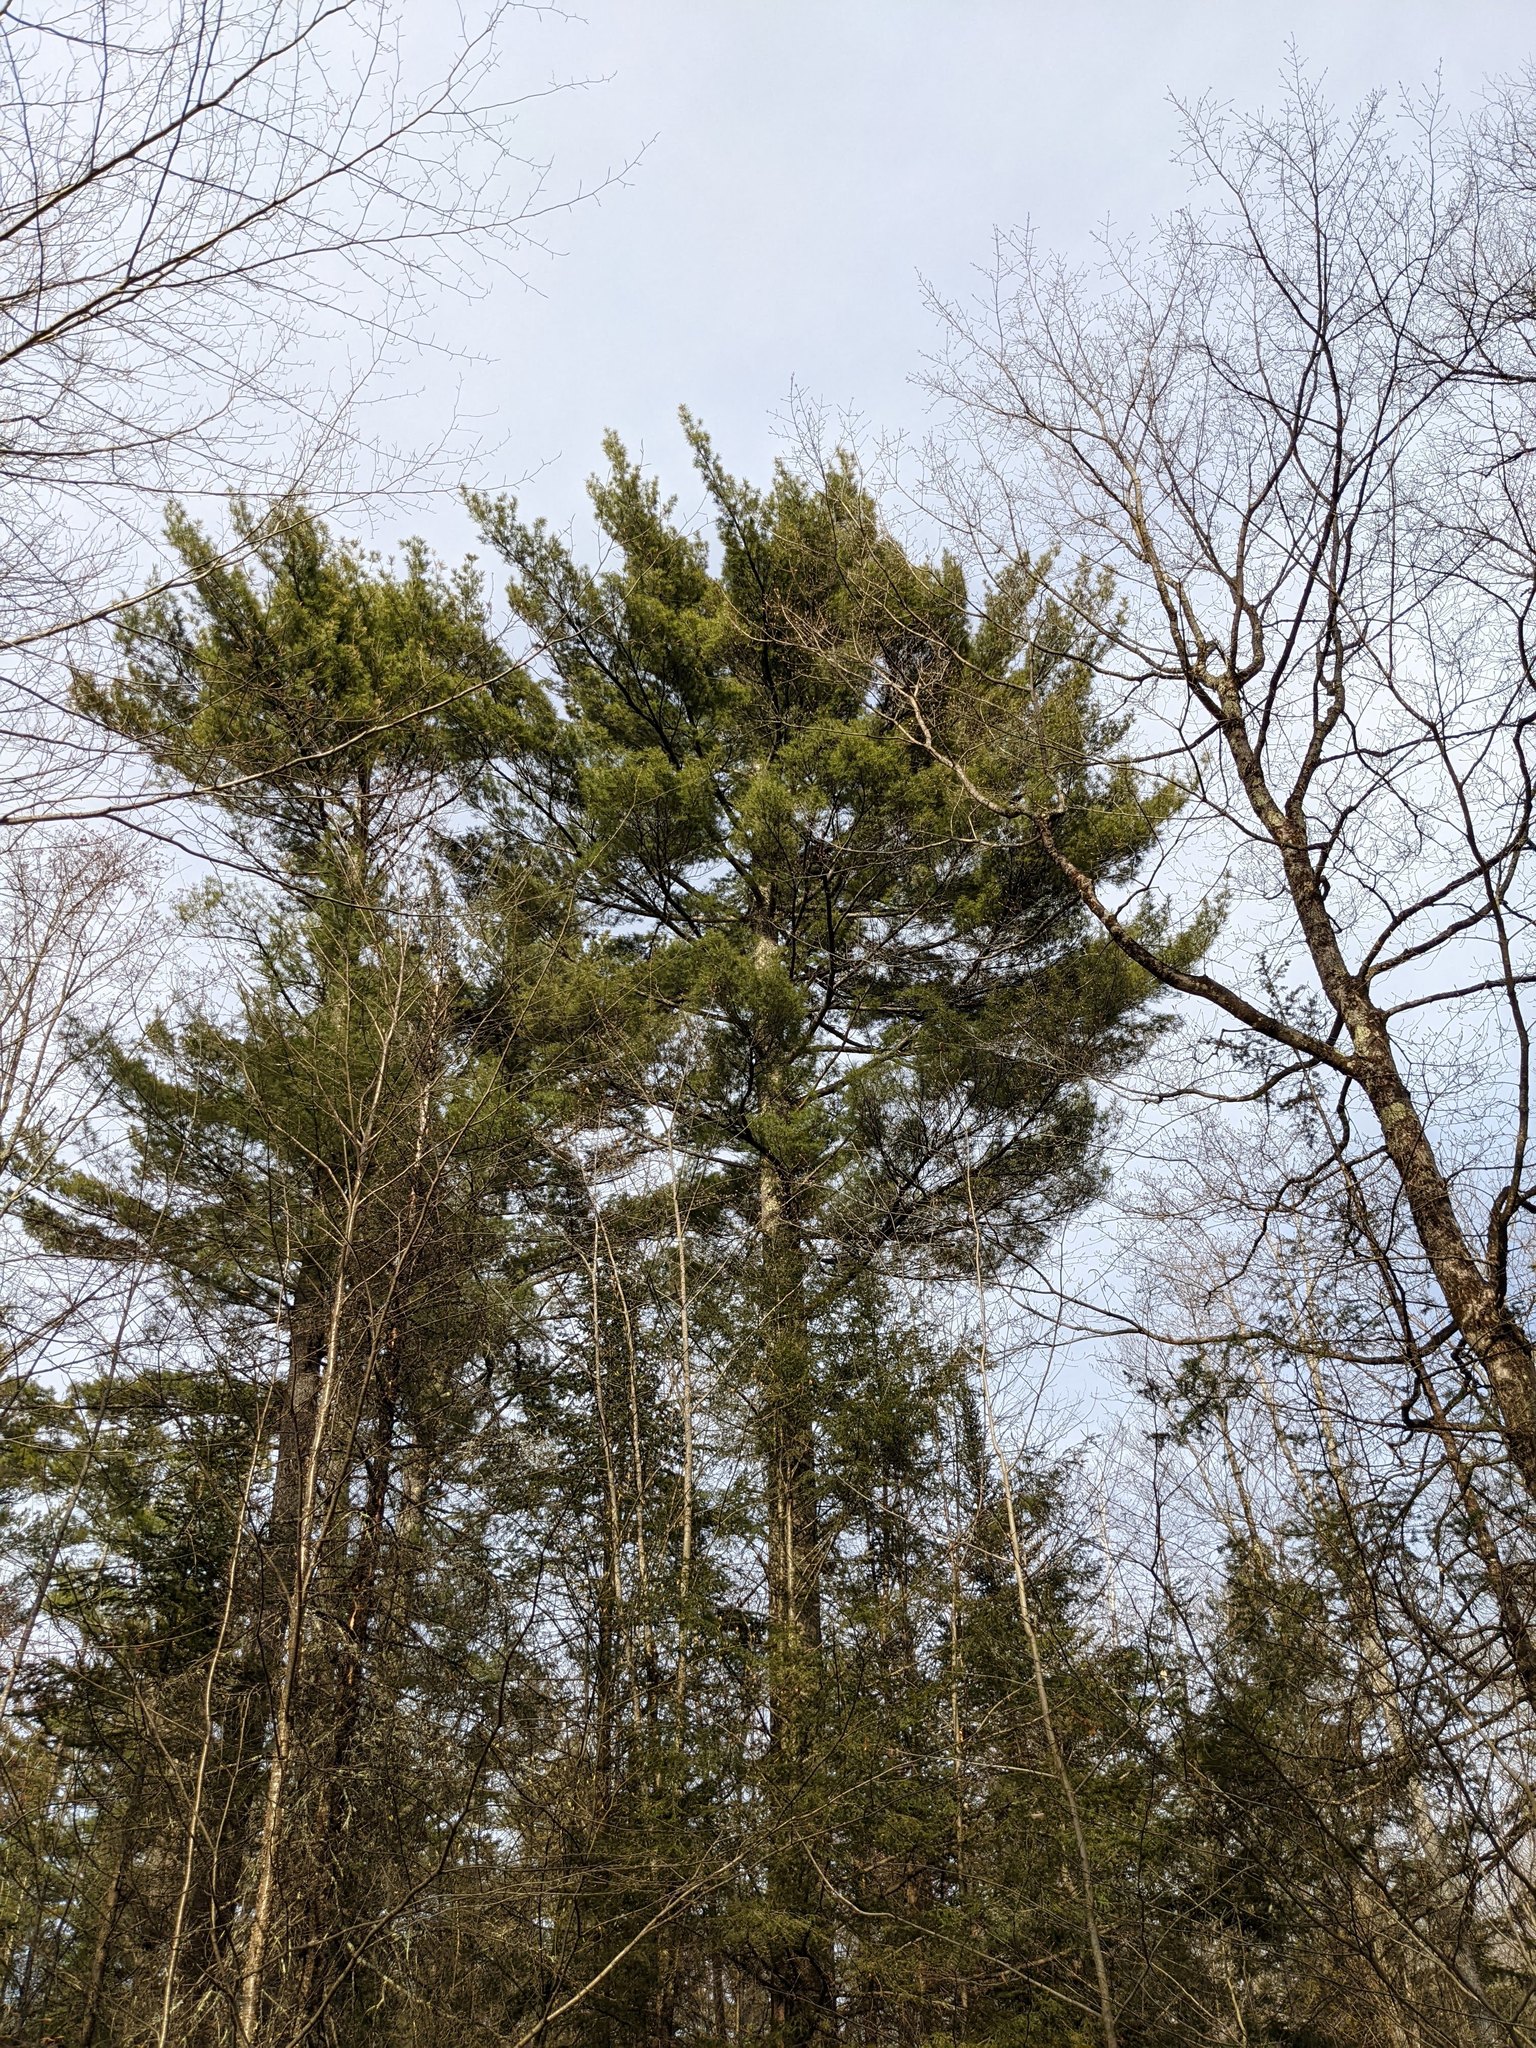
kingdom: Plantae
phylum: Tracheophyta
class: Pinopsida
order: Pinales
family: Pinaceae
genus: Pinus
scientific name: Pinus strobus
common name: Weymouth pine
